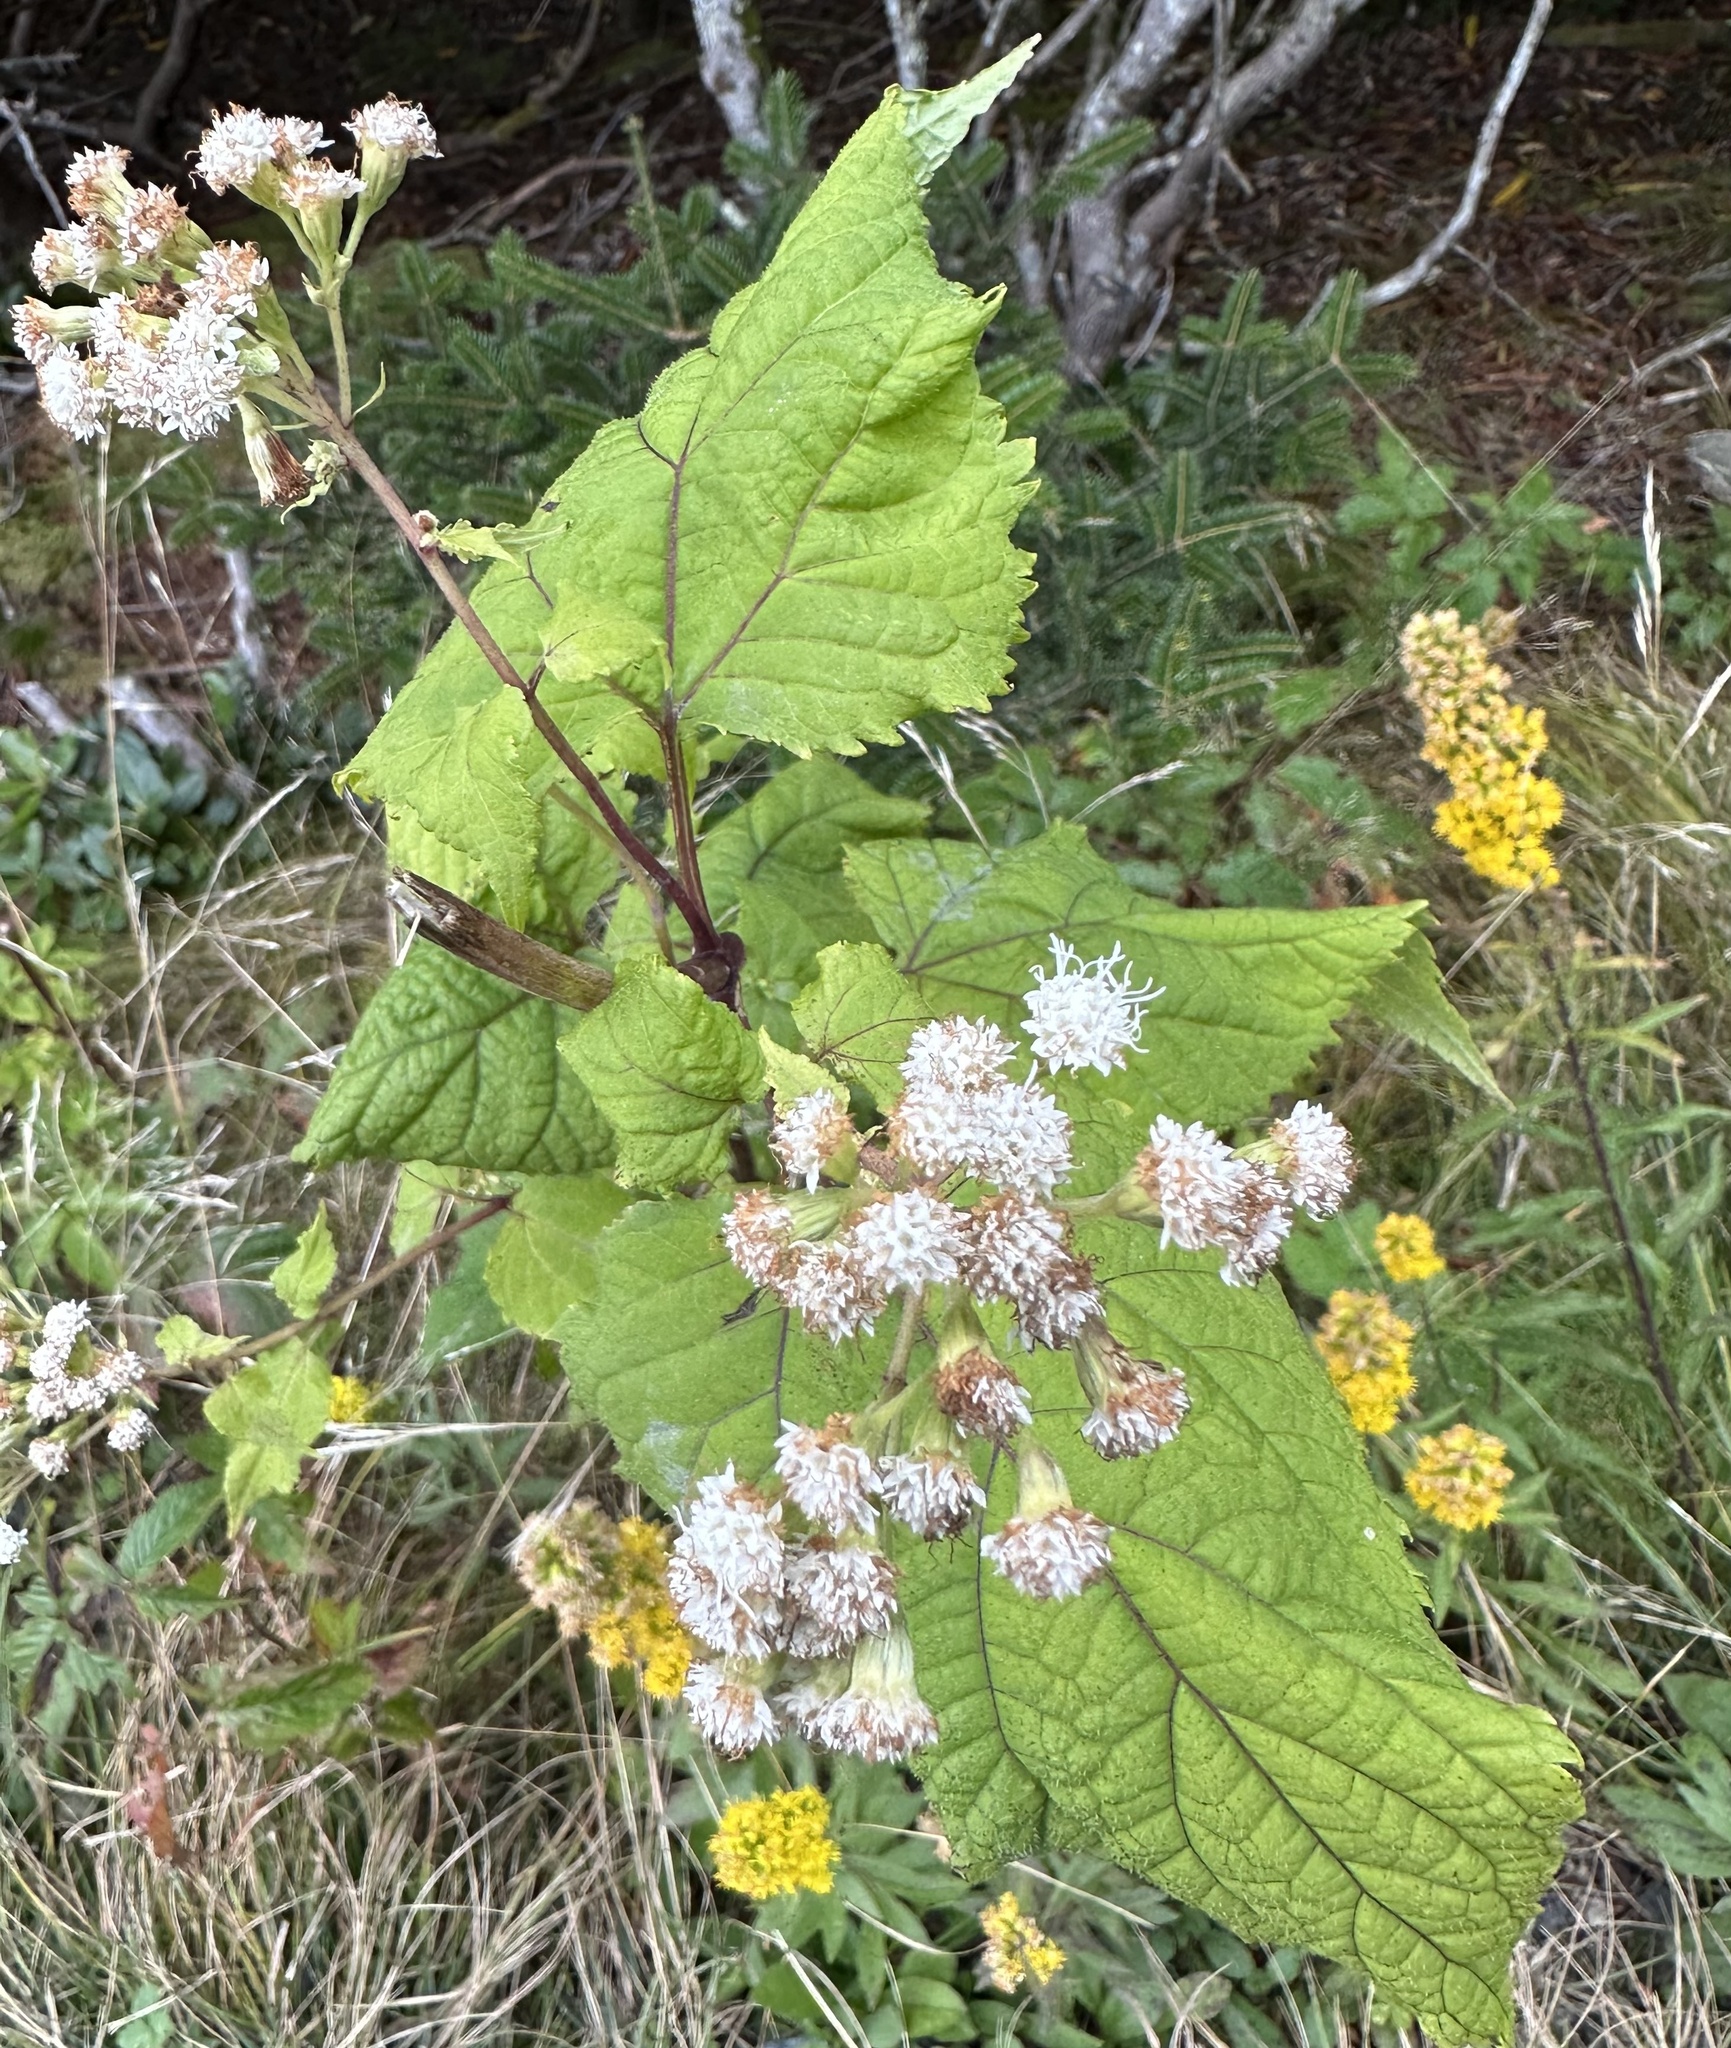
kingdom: Plantae
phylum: Tracheophyta
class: Magnoliopsida
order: Asterales
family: Asteraceae
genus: Ageratina
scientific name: Ageratina roanensis
